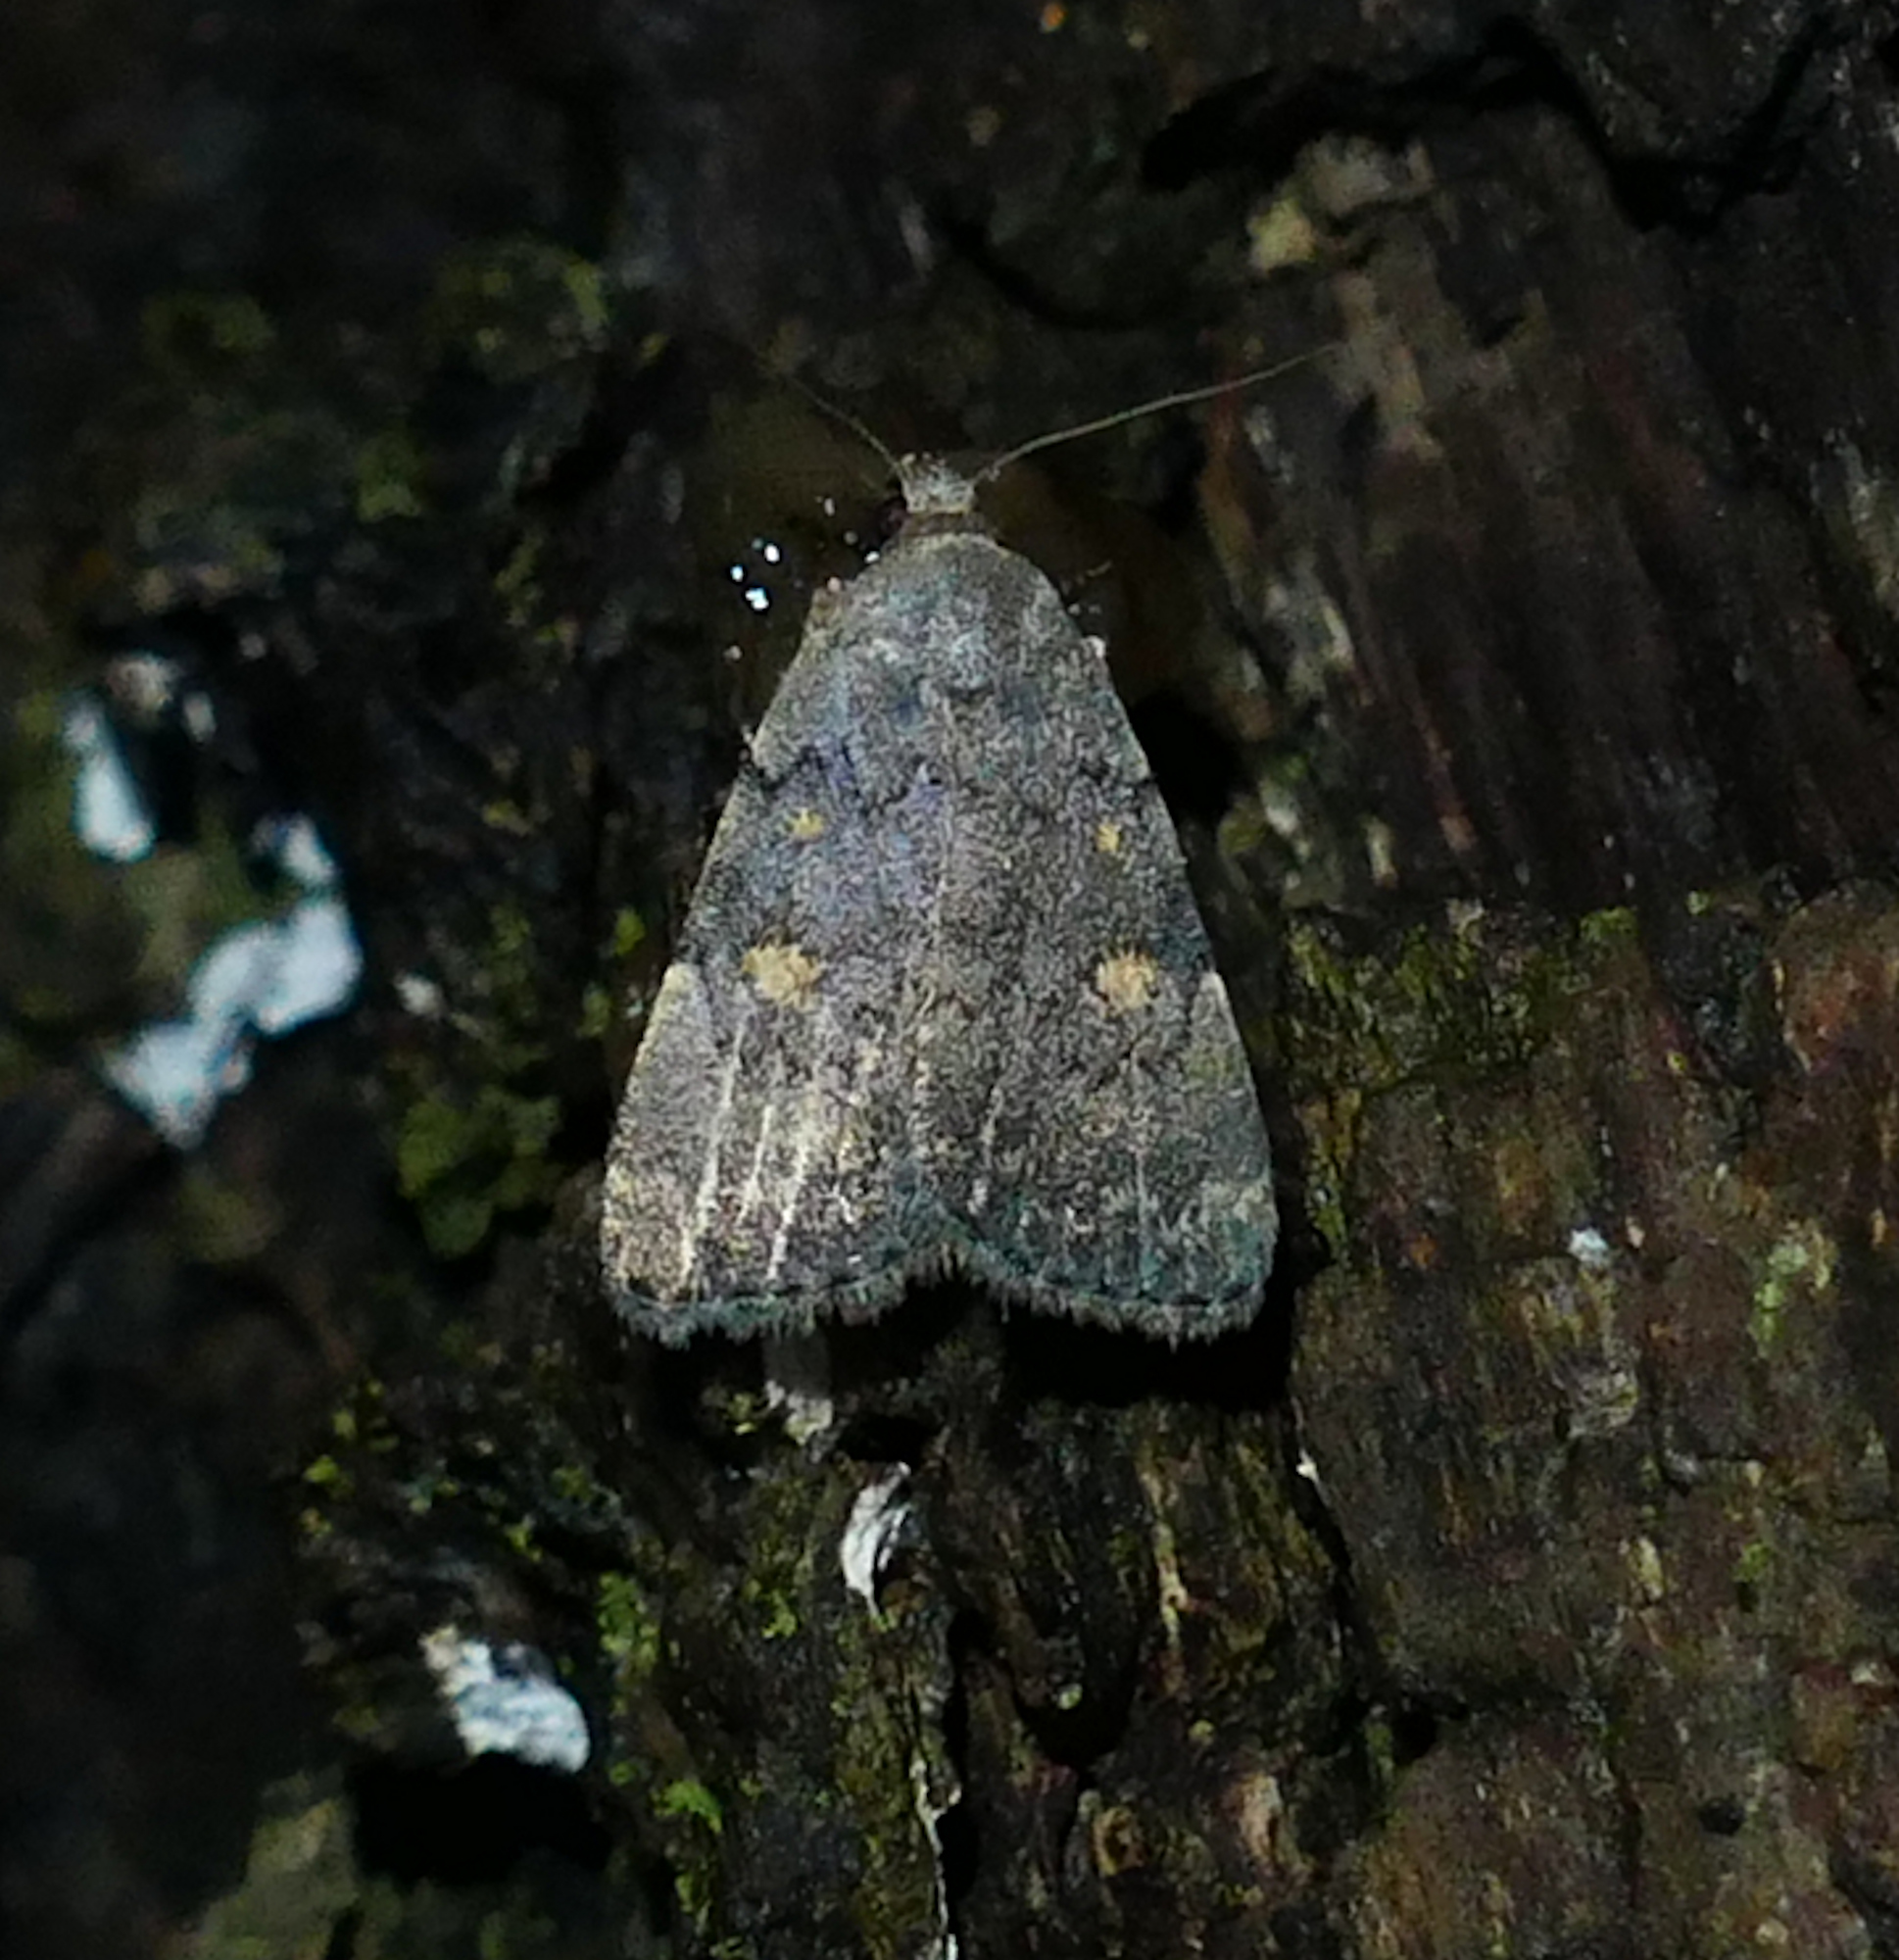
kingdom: Animalia
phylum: Arthropoda
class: Insecta
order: Lepidoptera
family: Erebidae
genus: Idia
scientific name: Idia aemula
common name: Common idia moth
